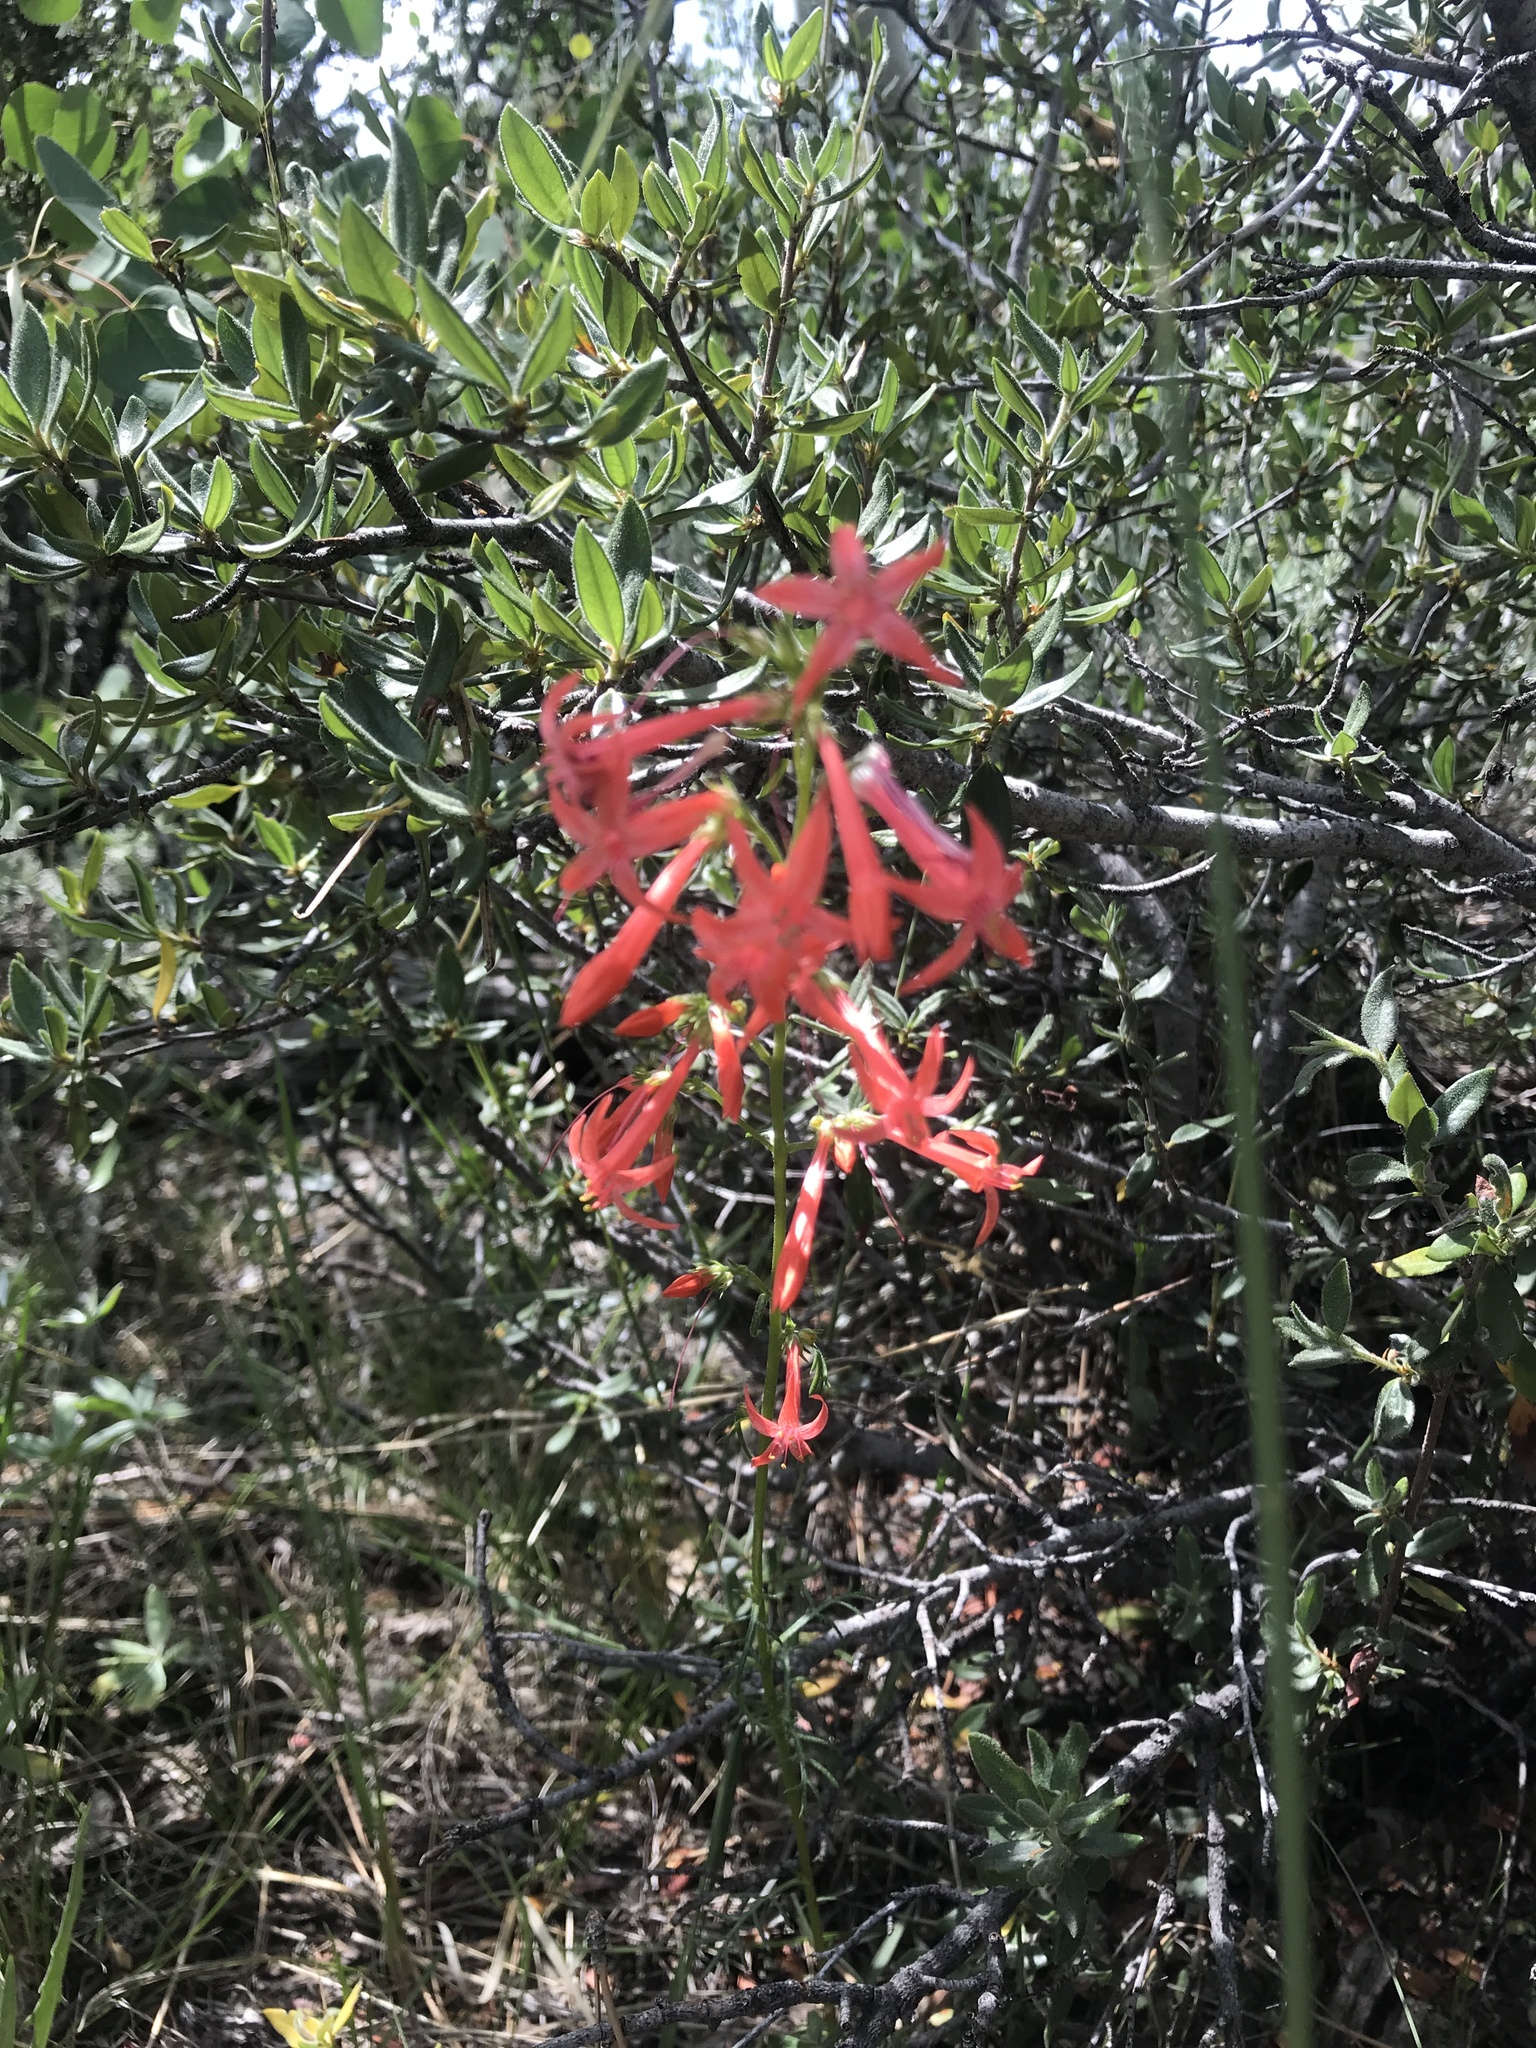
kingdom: Plantae
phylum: Tracheophyta
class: Magnoliopsida
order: Ericales
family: Polemoniaceae
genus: Ipomopsis
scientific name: Ipomopsis aggregata
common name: Scarlet gilia
